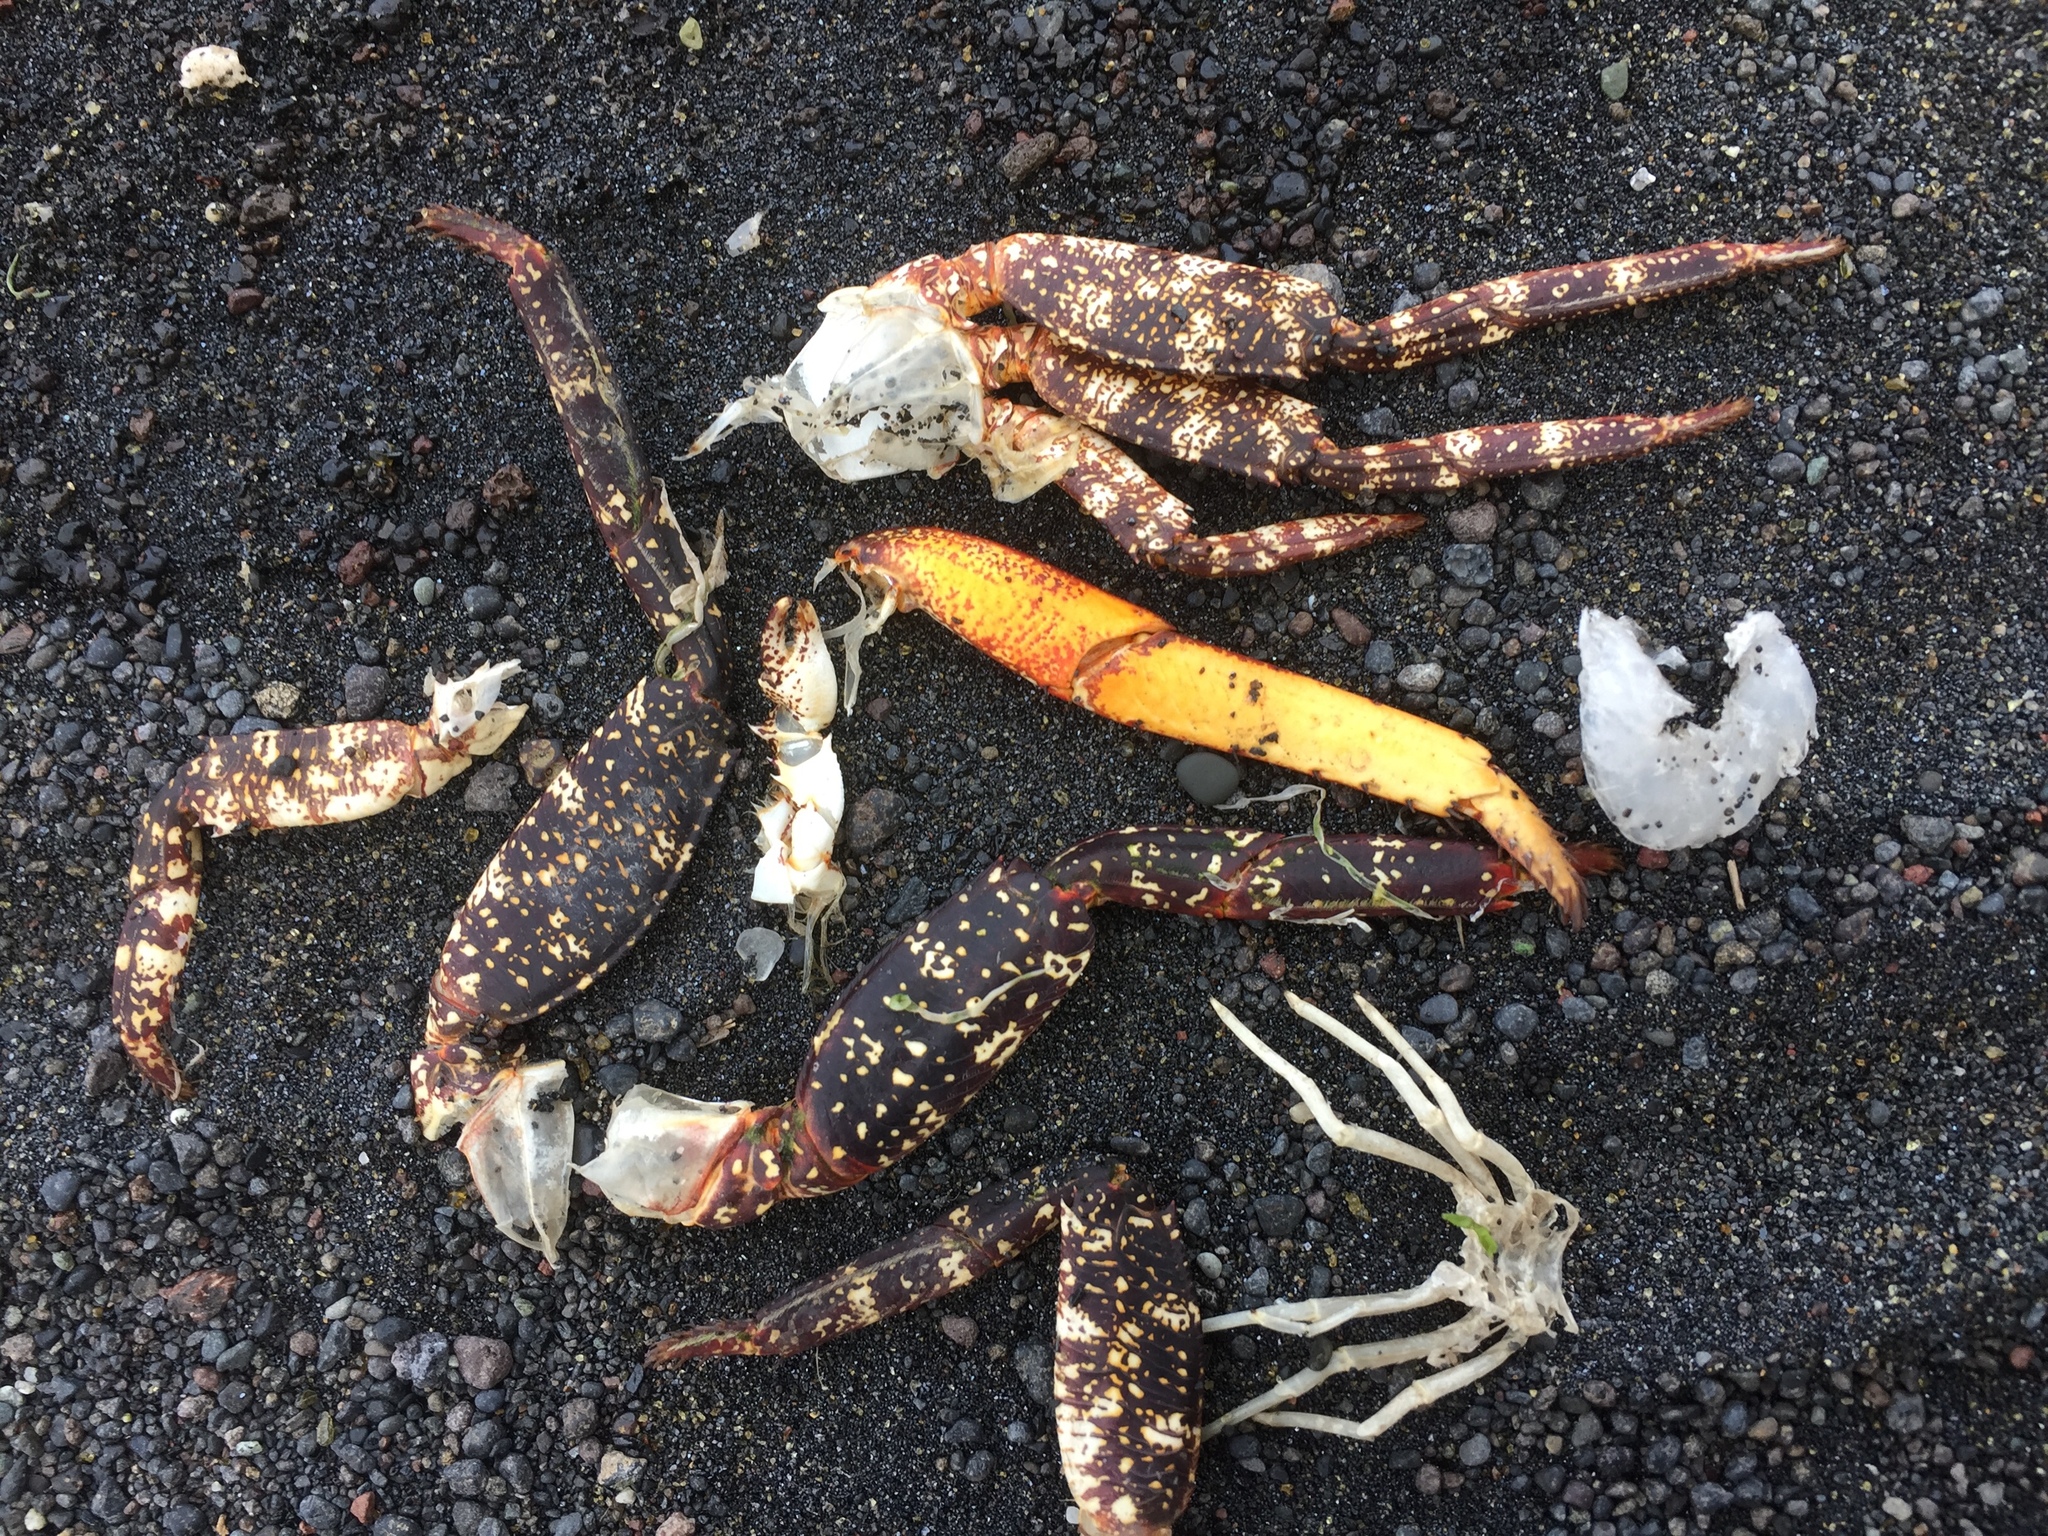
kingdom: Animalia
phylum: Arthropoda
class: Malacostraca
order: Decapoda
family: Grapsidae
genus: Grapsus
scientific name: Grapsus adscensionis
